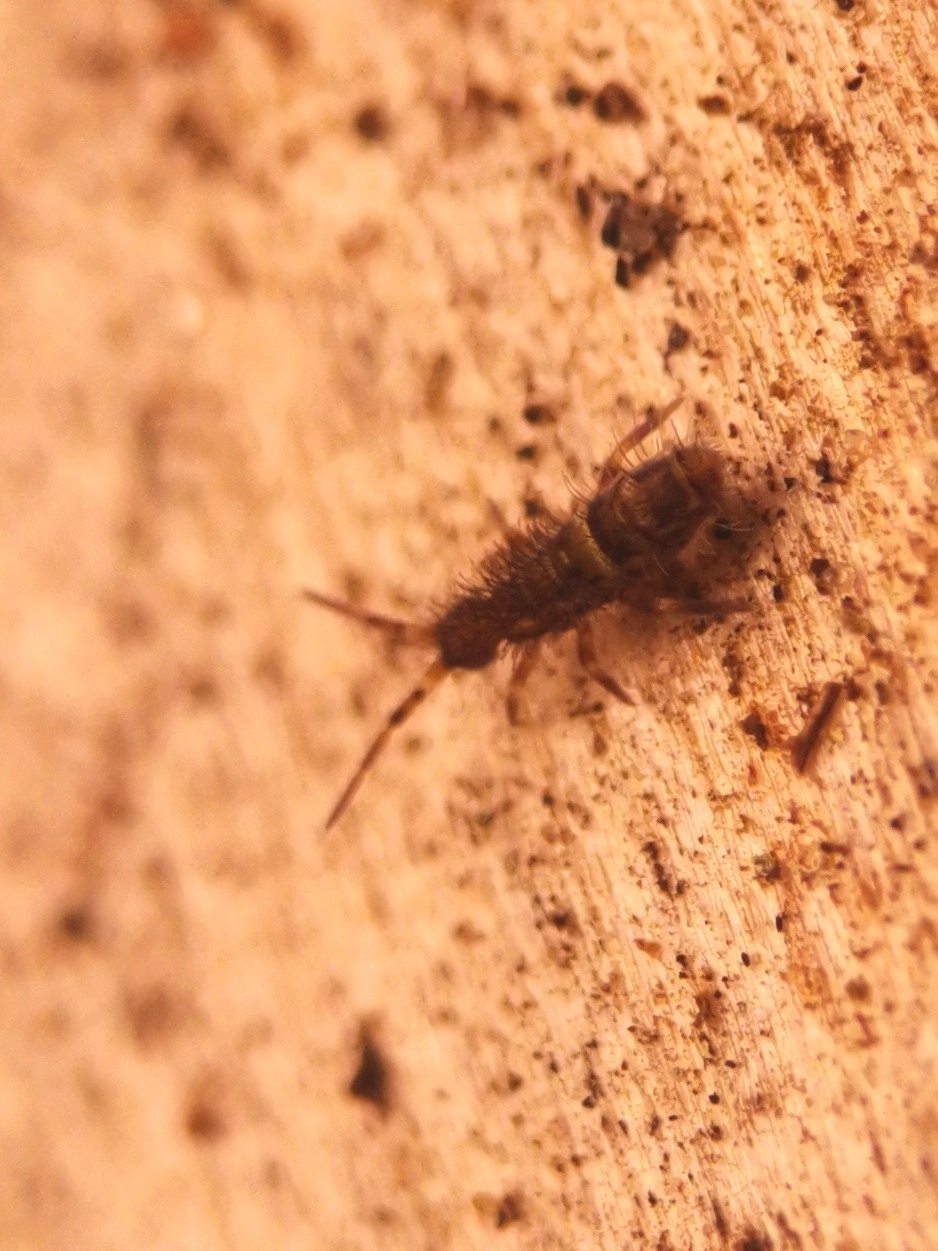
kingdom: Animalia
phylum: Arthropoda
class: Collembola
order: Entomobryomorpha
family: Orchesellidae
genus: Orchesella
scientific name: Orchesella cincta
